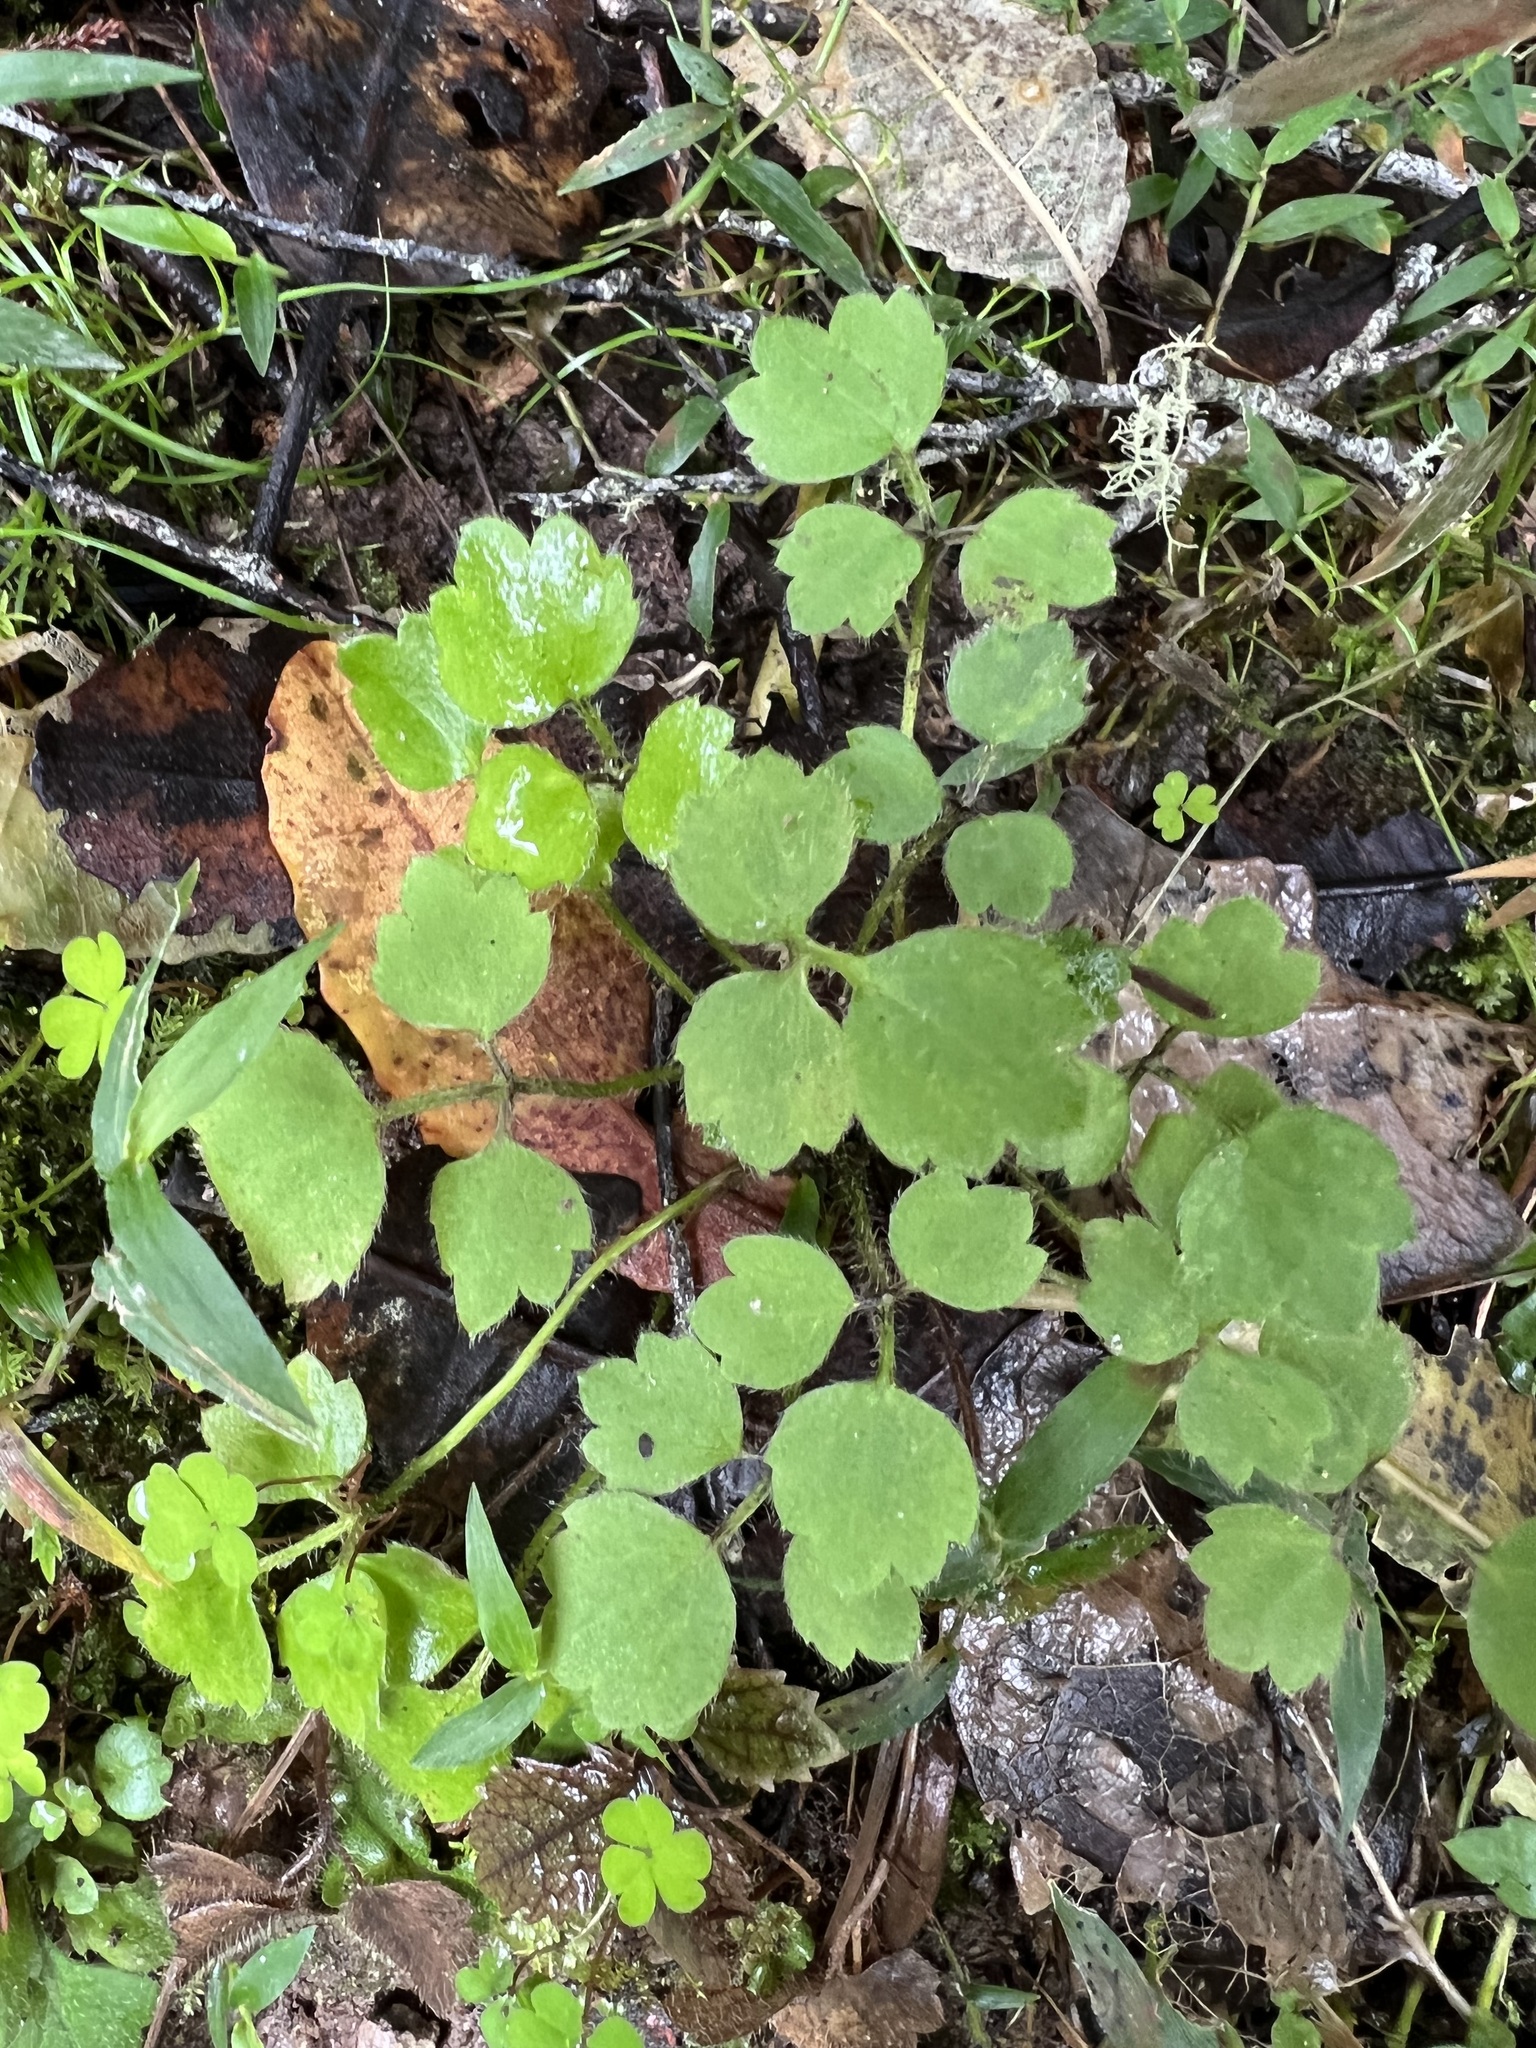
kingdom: Plantae
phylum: Tracheophyta
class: Magnoliopsida
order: Ranunculales
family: Ranunculaceae
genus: Ranunculus
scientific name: Ranunculus reflexus
